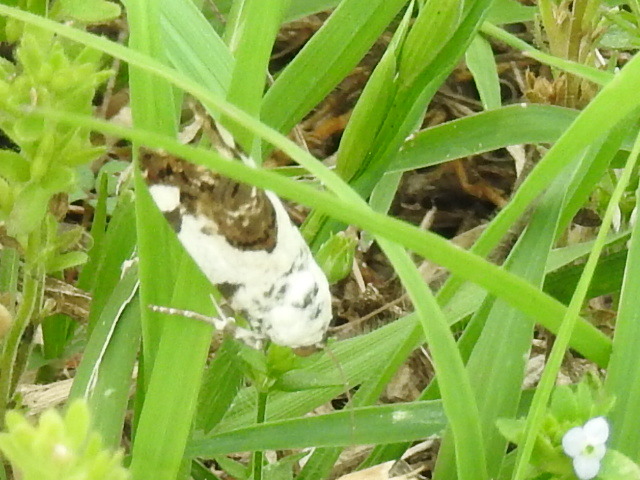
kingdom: Animalia
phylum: Arthropoda
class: Insecta
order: Lepidoptera
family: Noctuidae
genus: Acontia
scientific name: Acontia aprica
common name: Nun
